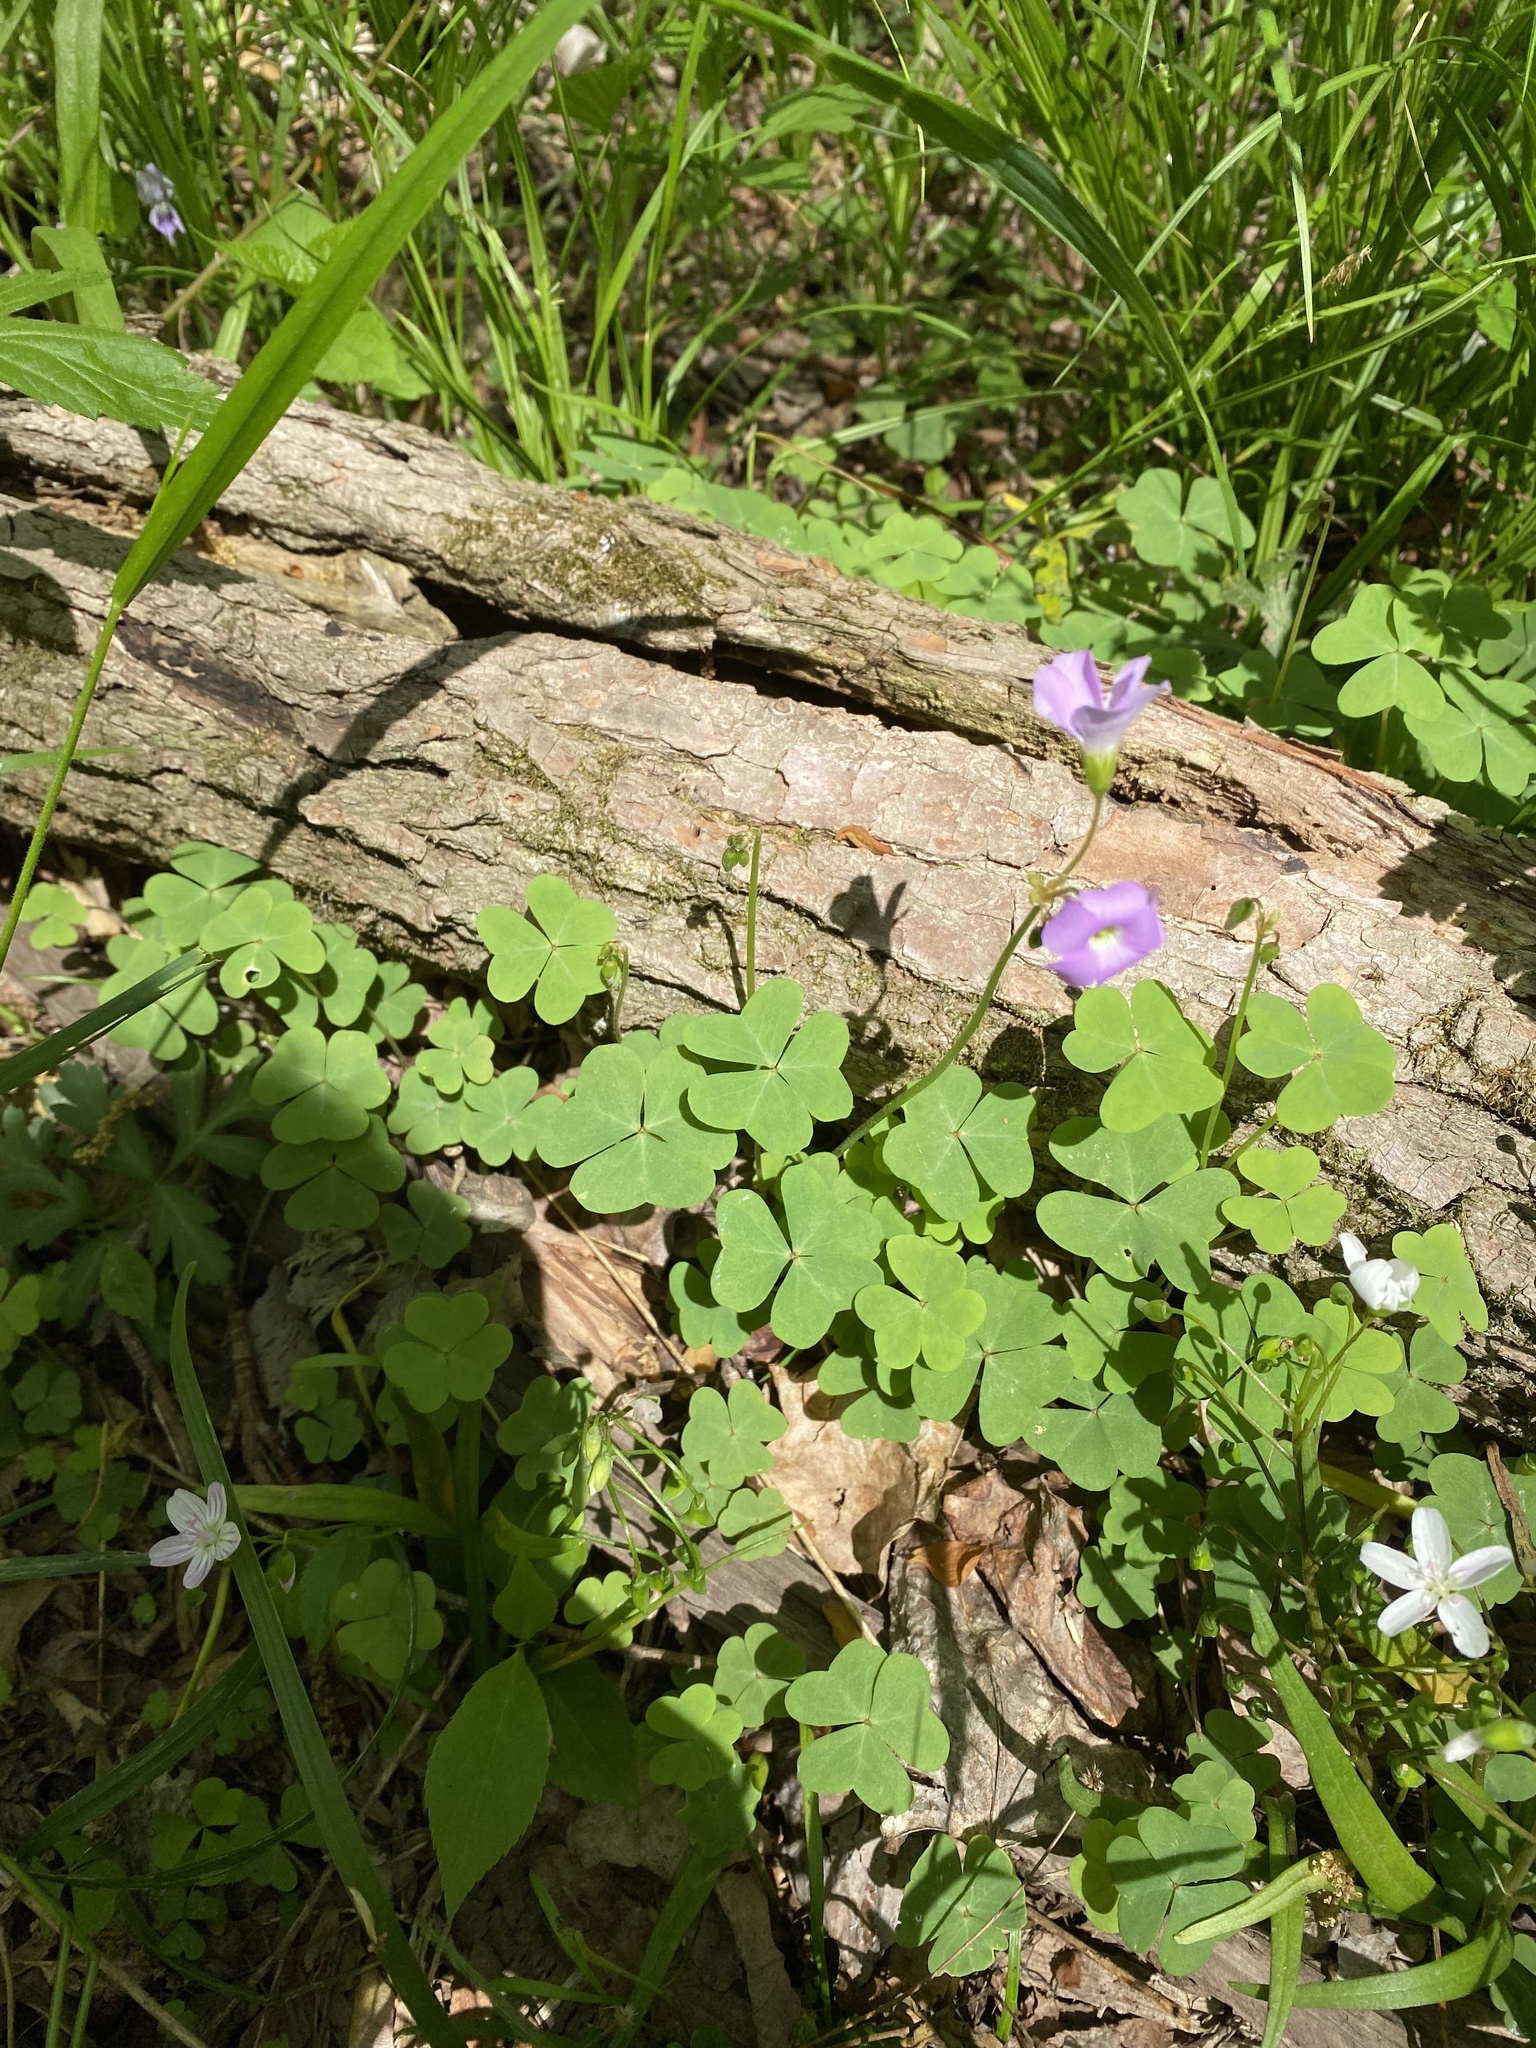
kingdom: Plantae
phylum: Tracheophyta
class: Magnoliopsida
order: Oxalidales
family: Oxalidaceae
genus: Oxalis
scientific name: Oxalis violacea
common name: Violet wood-sorrel
